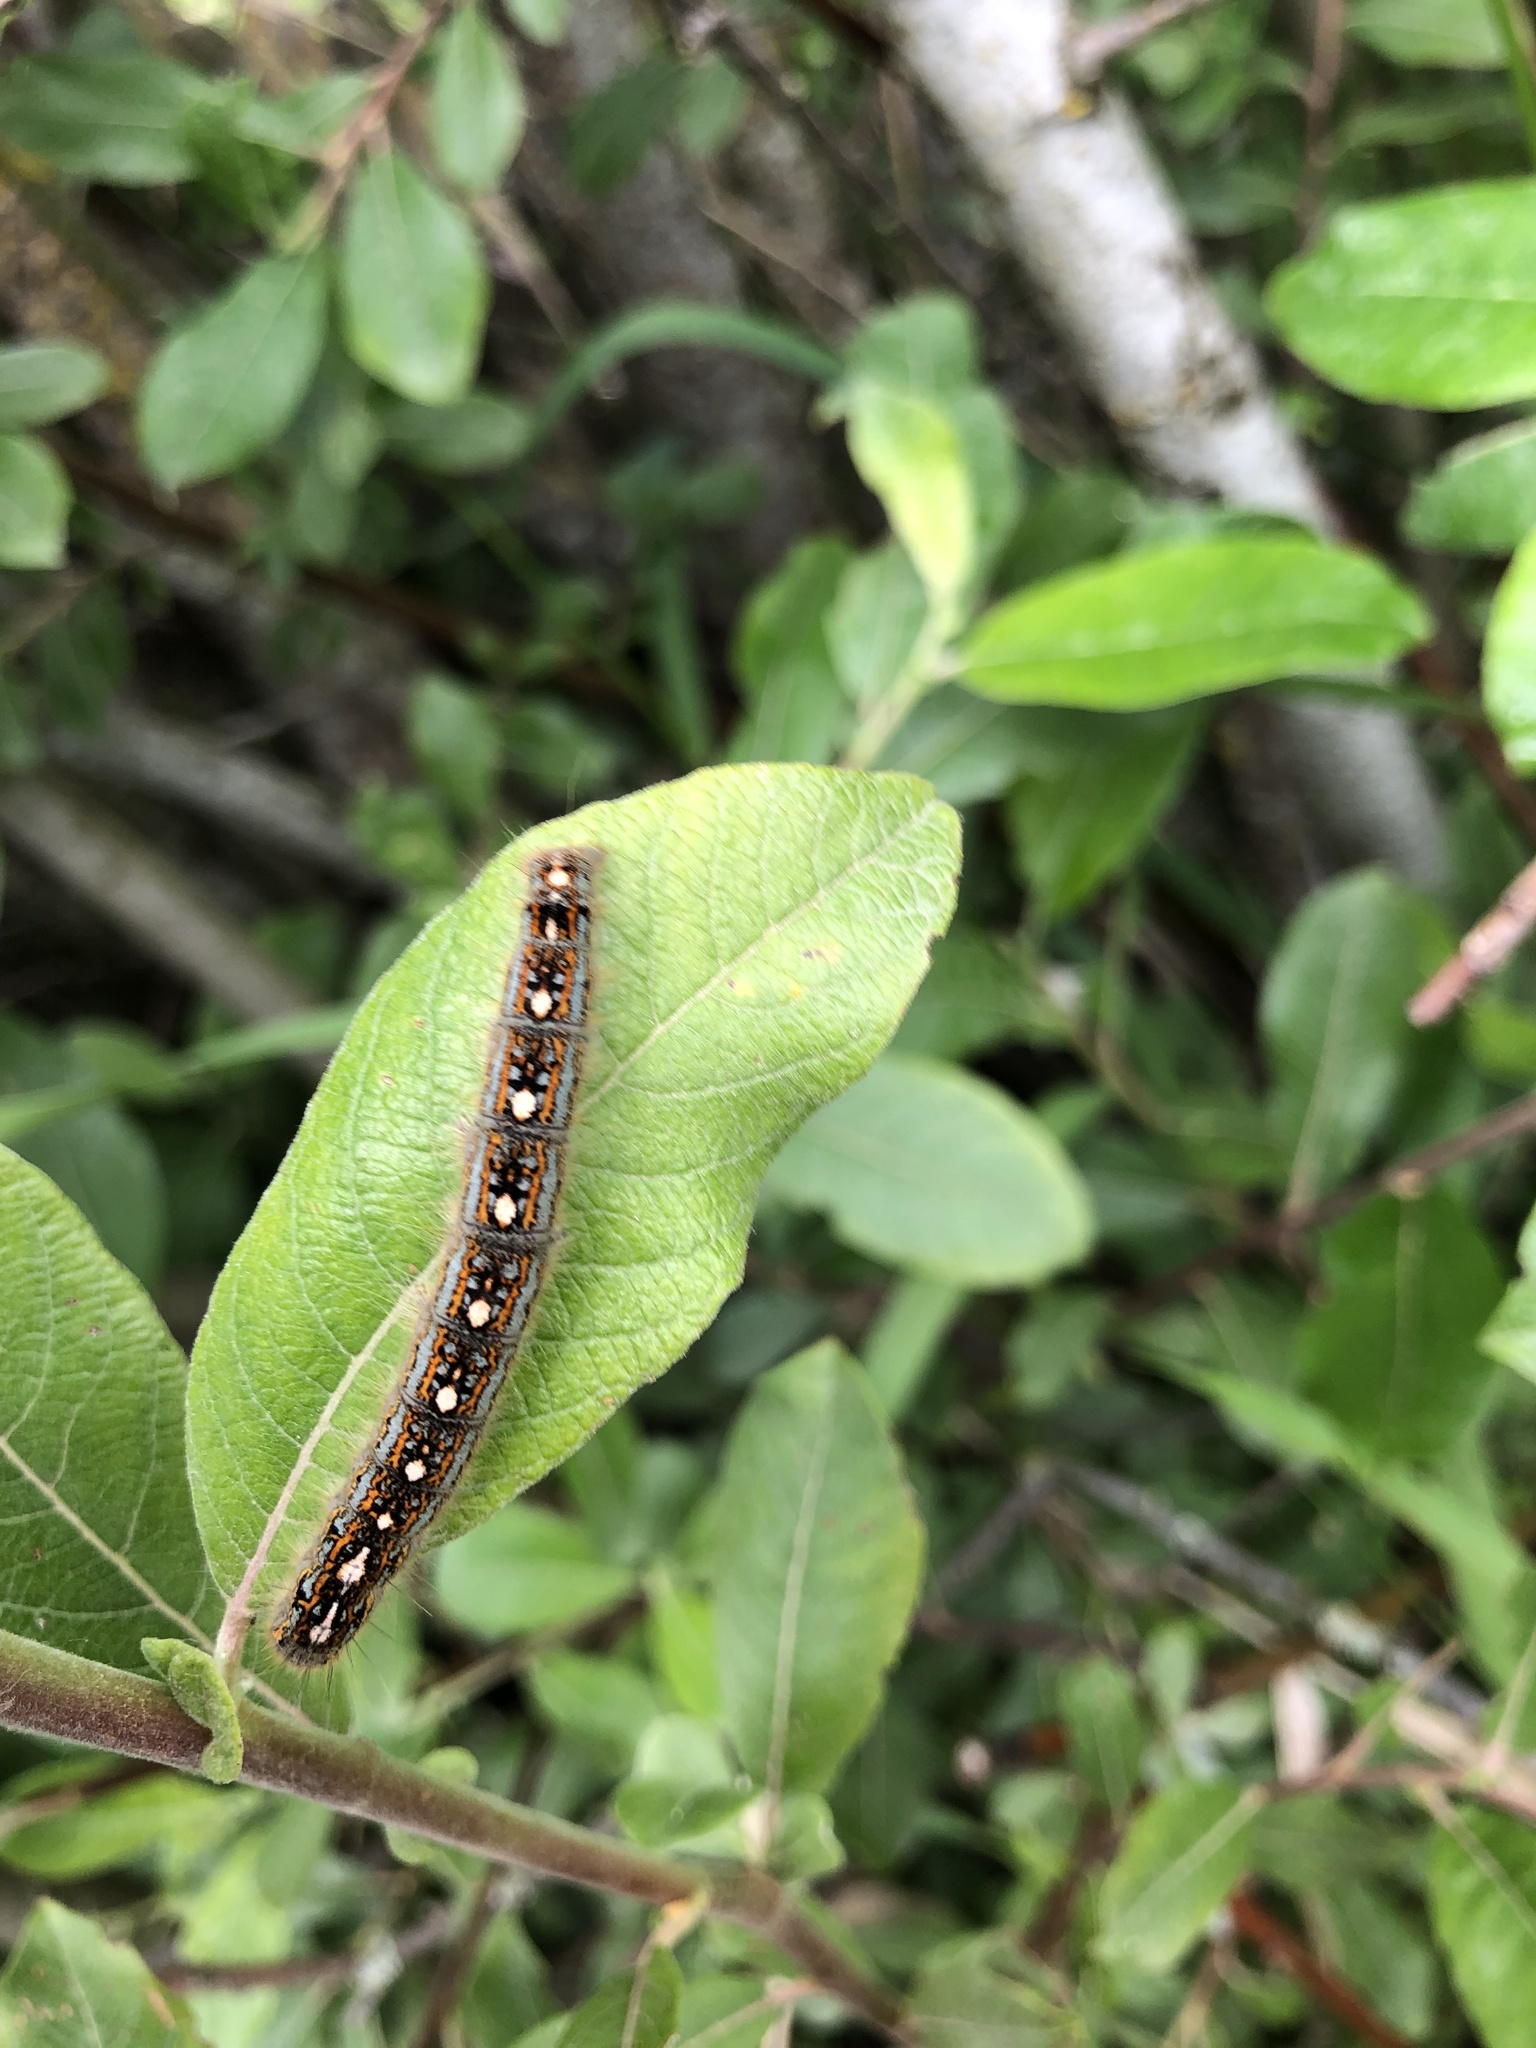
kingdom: Animalia
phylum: Arthropoda
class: Insecta
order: Lepidoptera
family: Lasiocampidae
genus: Malacosoma
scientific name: Malacosoma disstria
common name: Forest tent caterpillar
